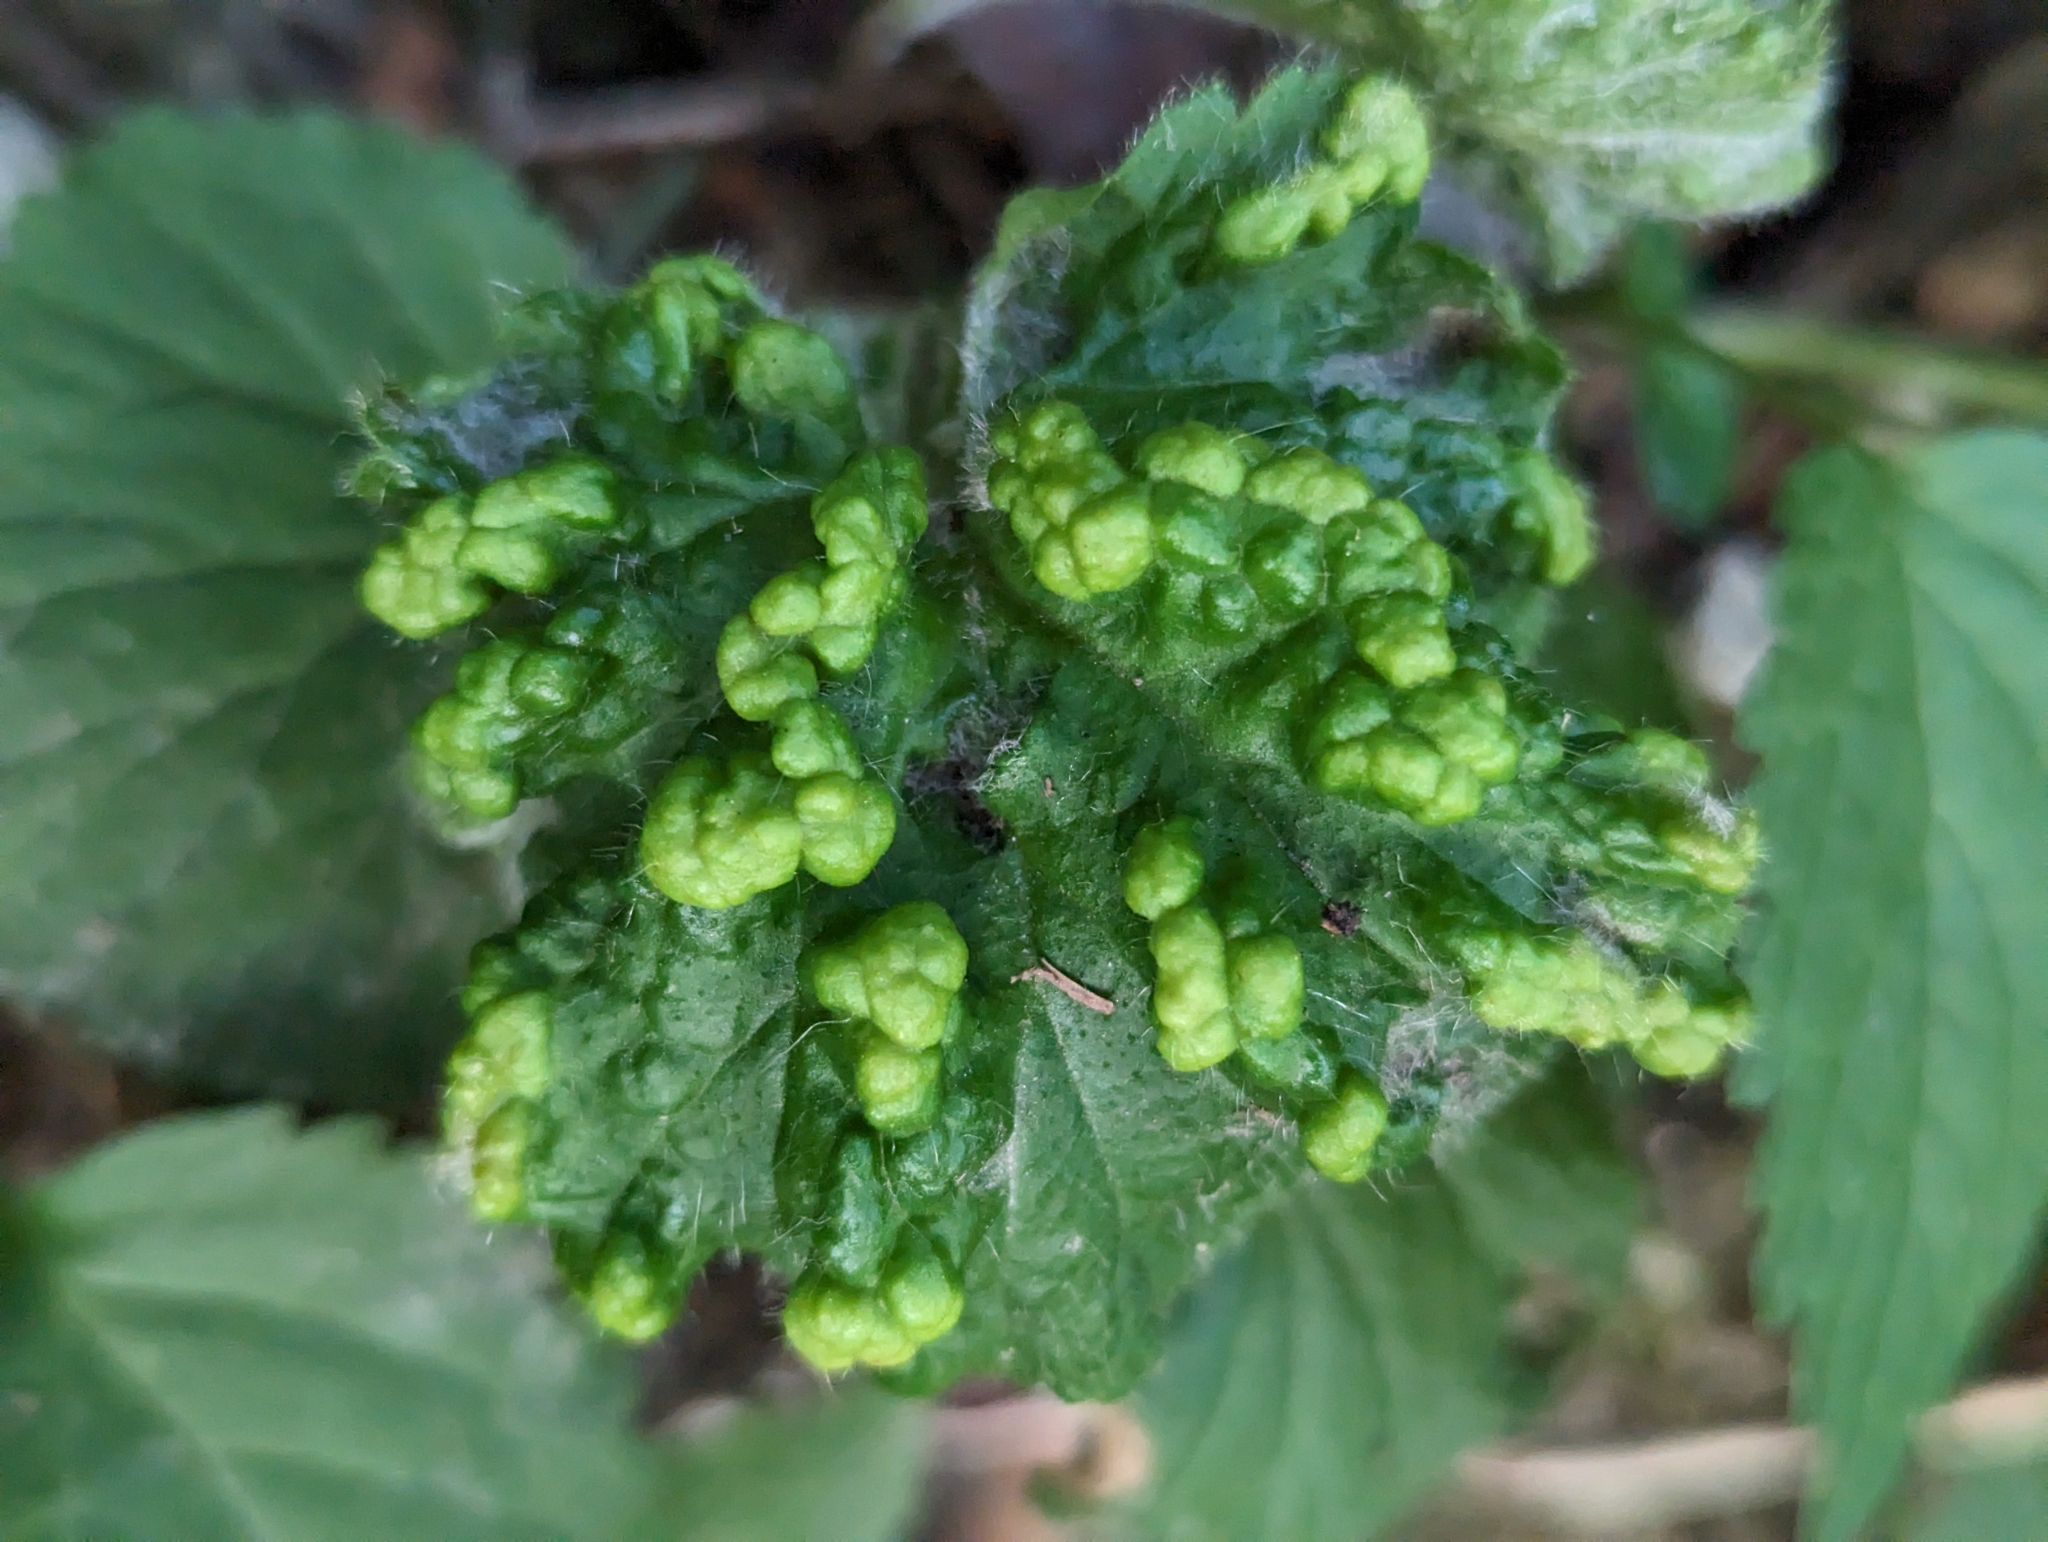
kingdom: Animalia
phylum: Arthropoda
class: Arachnida
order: Trombidiformes
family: Eriophyidae
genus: Cecidophyes
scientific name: Cecidophyes nudus
